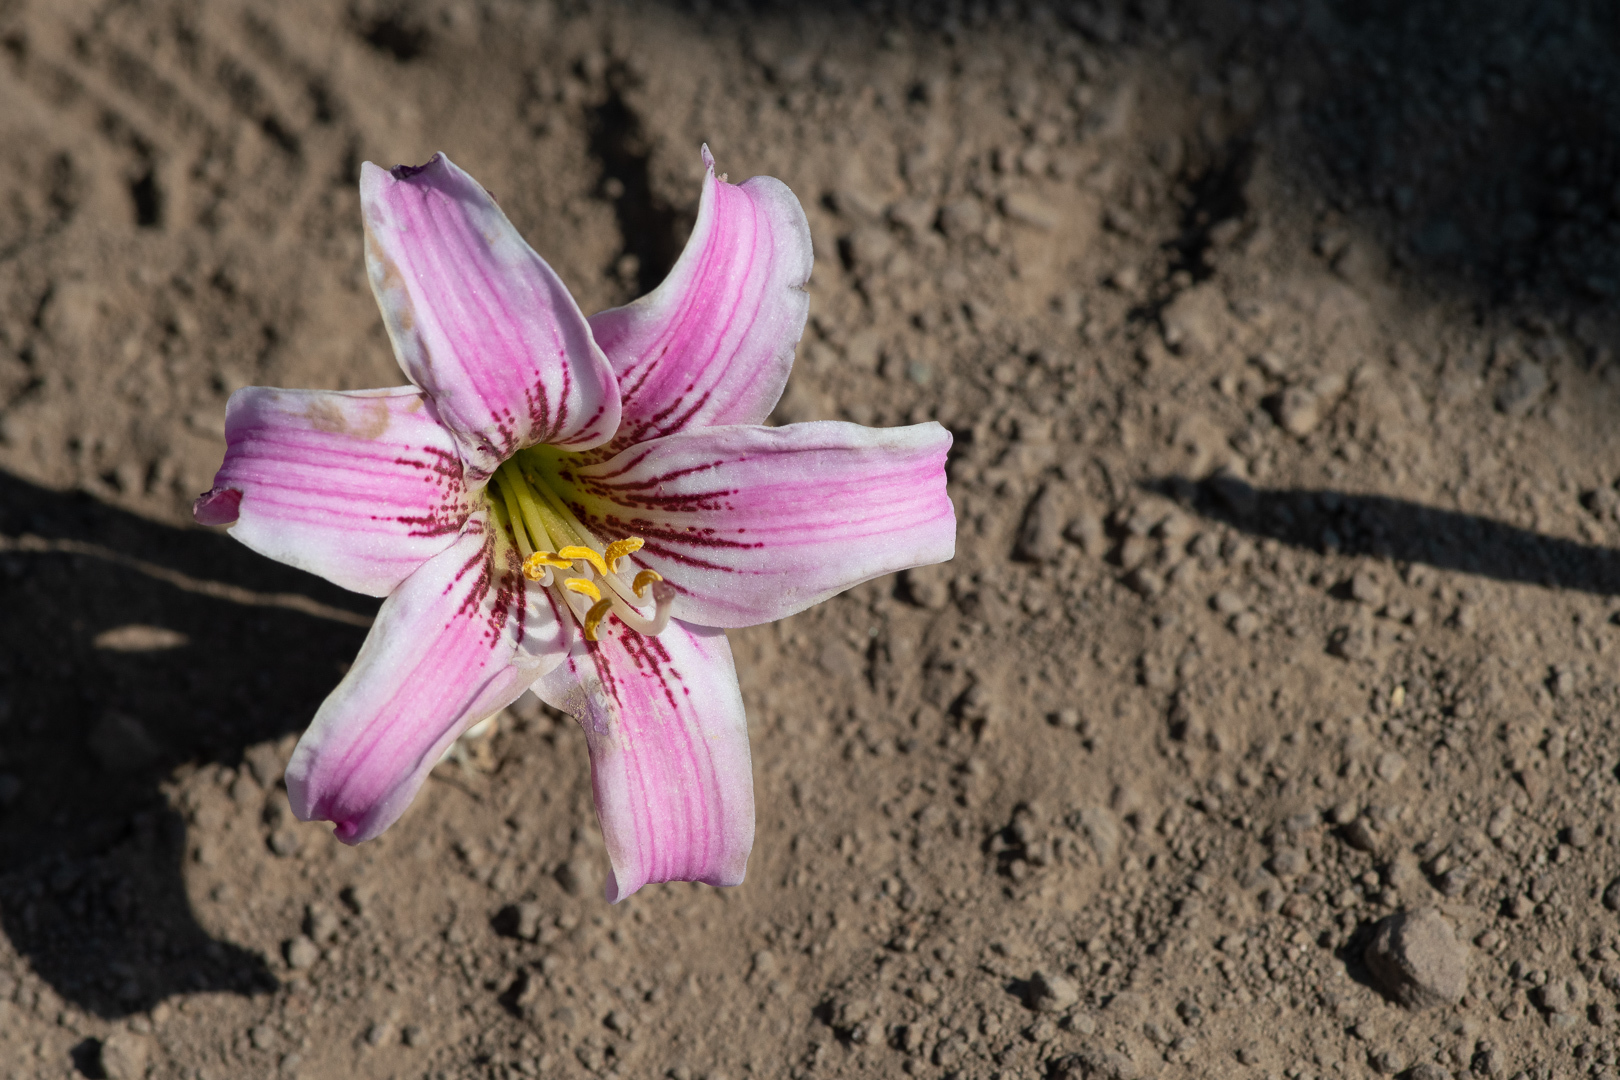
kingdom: Plantae
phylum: Tracheophyta
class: Liliopsida
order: Asparagales
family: Amaryllidaceae
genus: Rhodolirium
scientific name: Rhodolirium montanum
